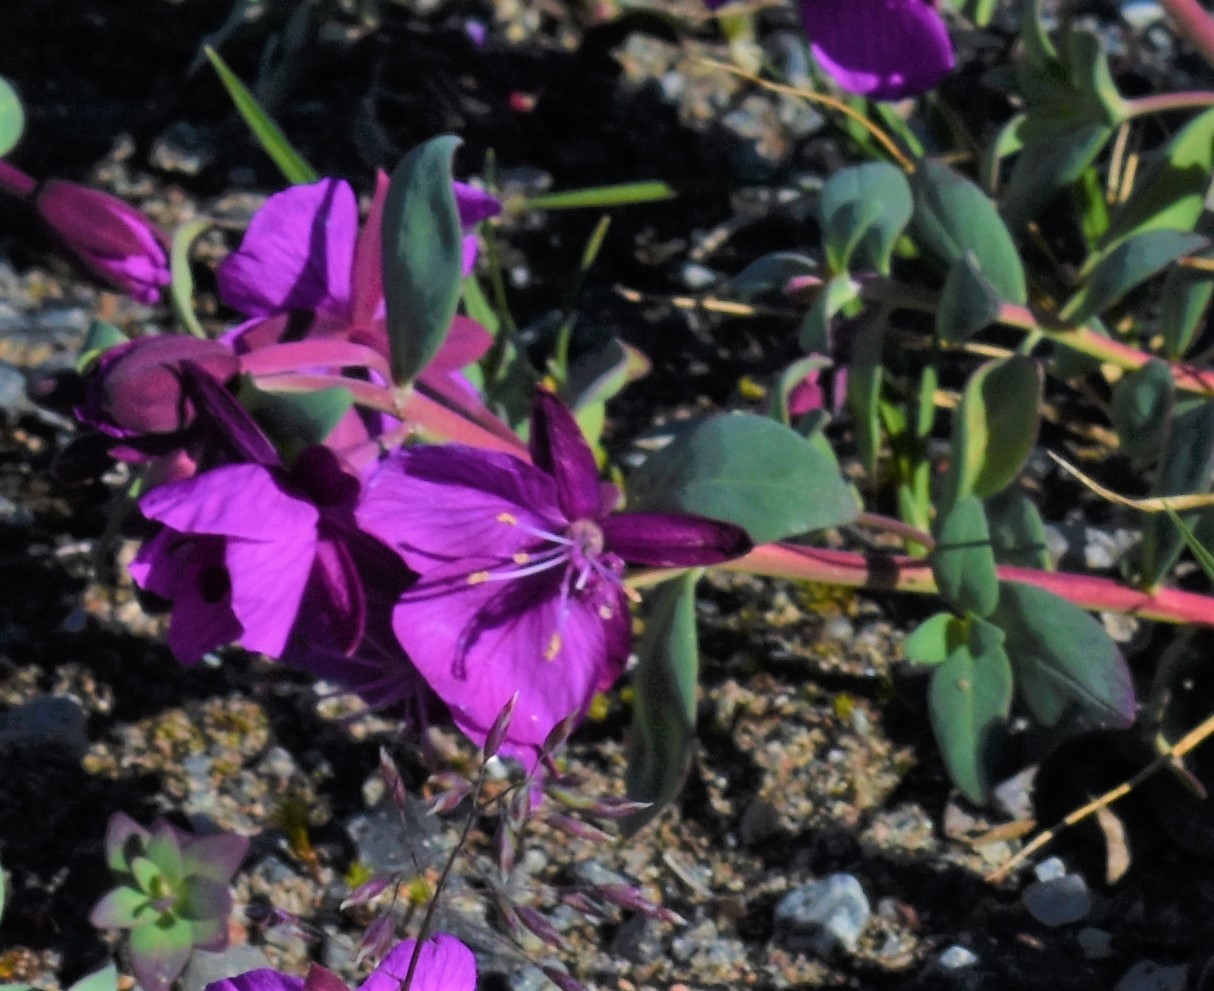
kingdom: Plantae
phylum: Tracheophyta
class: Magnoliopsida
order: Myrtales
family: Onagraceae
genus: Chamaenerion
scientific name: Chamaenerion latifolium
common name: Dwarf fireweed
